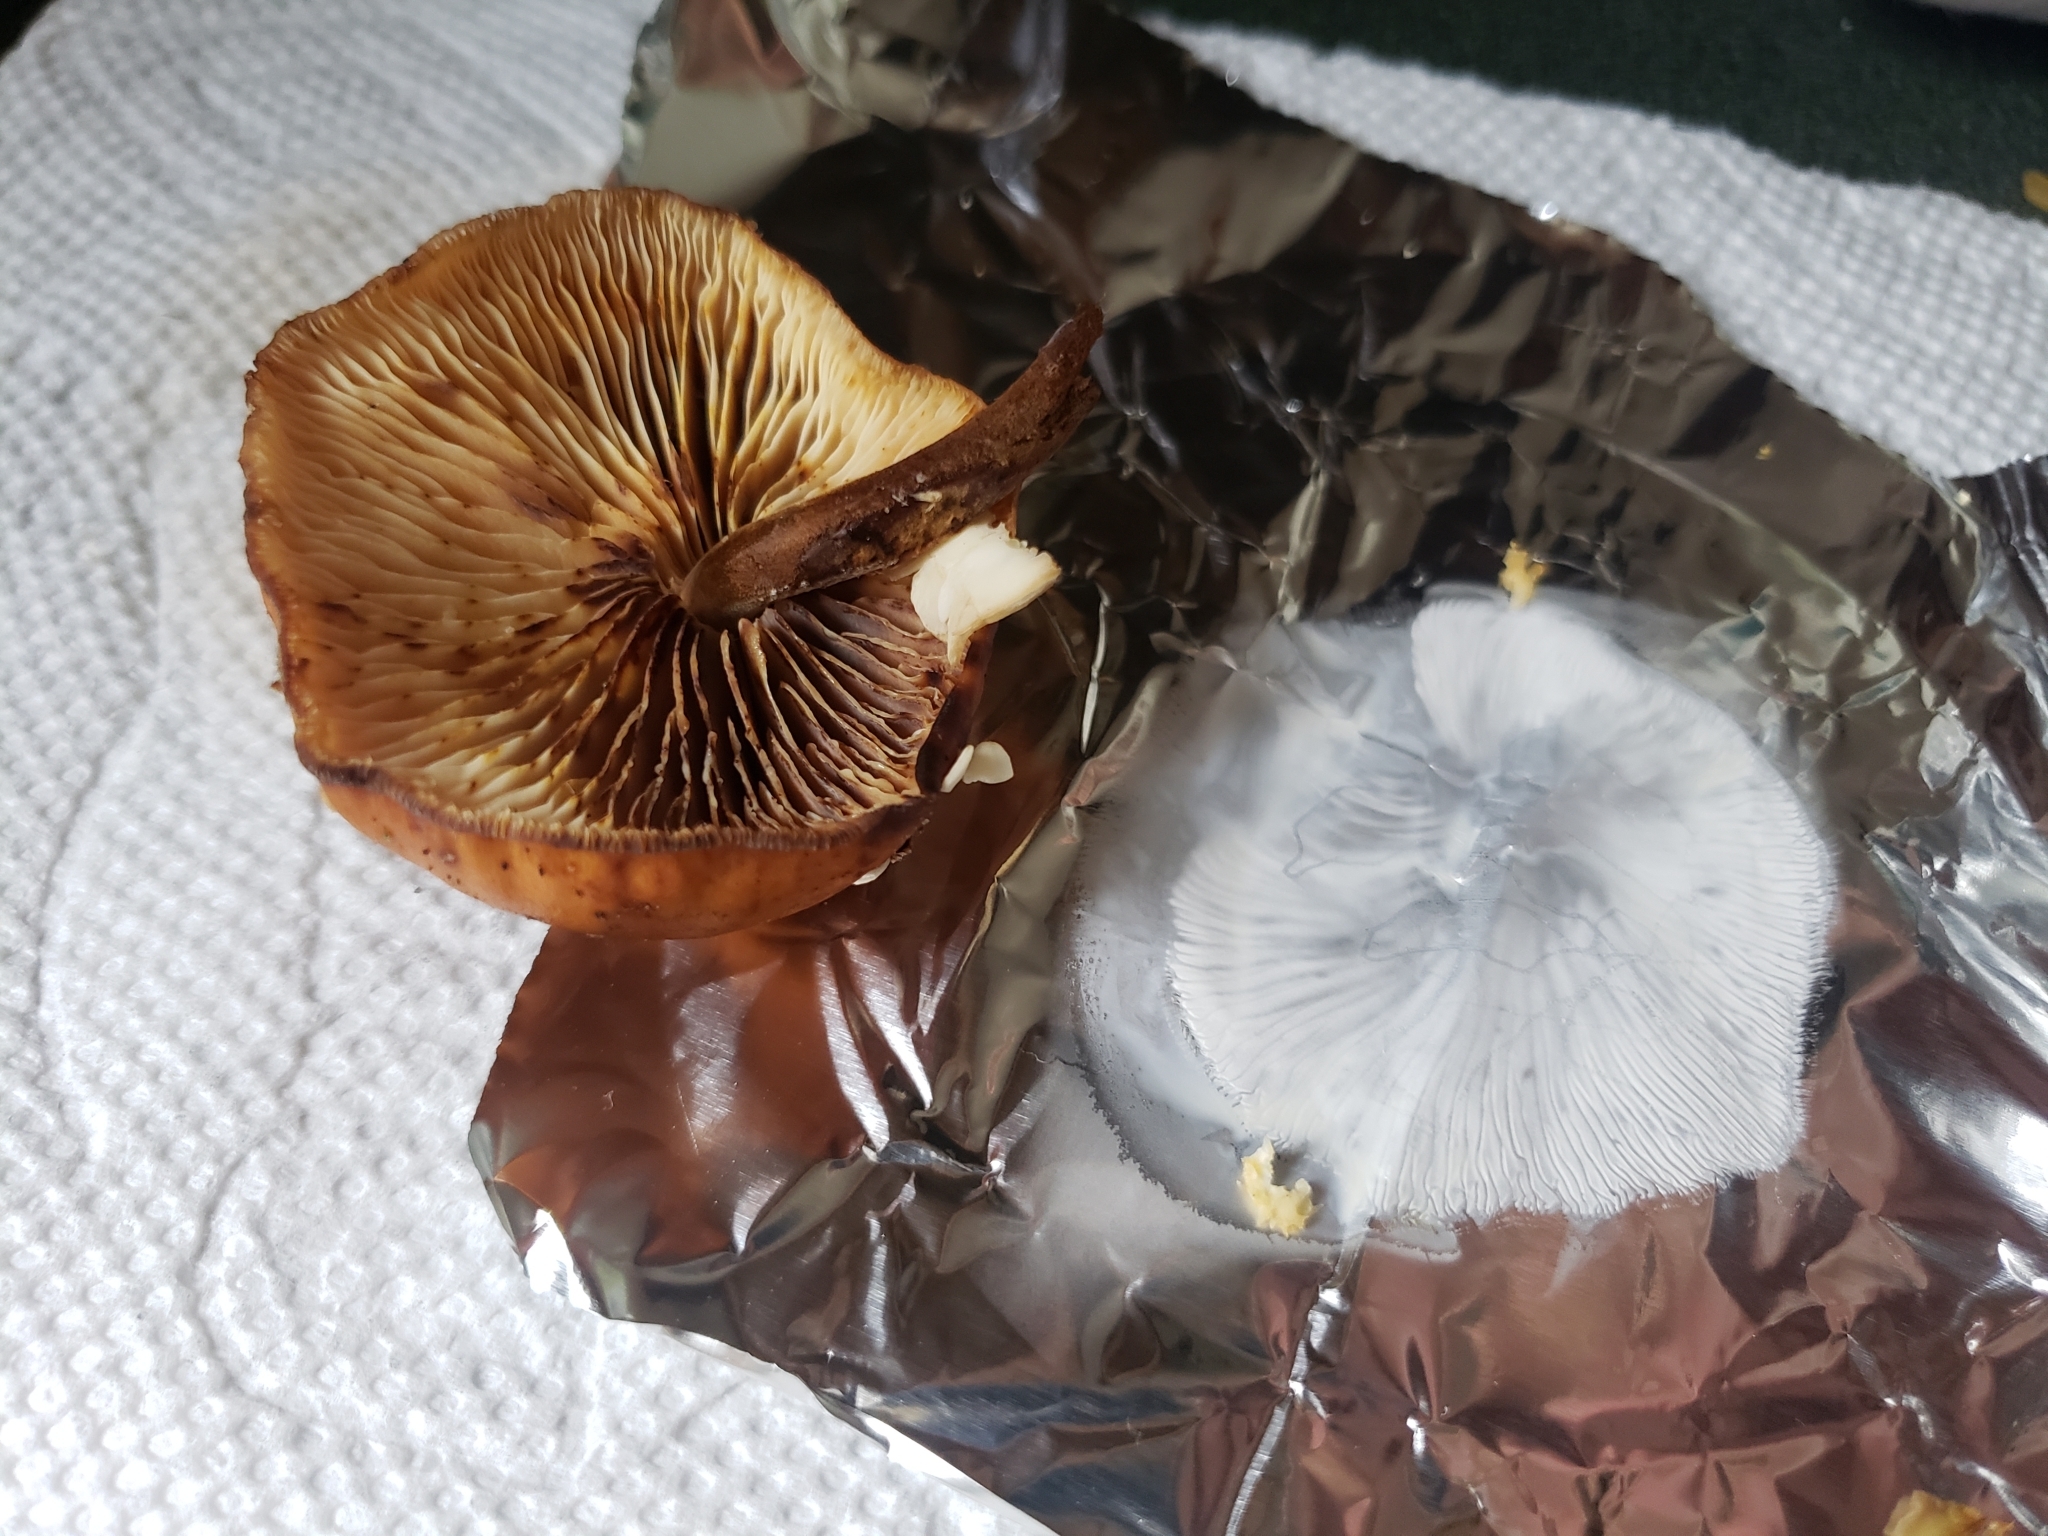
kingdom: Fungi
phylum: Basidiomycota
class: Agaricomycetes
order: Agaricales
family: Physalacriaceae
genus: Flammulina
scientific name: Flammulina velutipes
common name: Velvet shank
